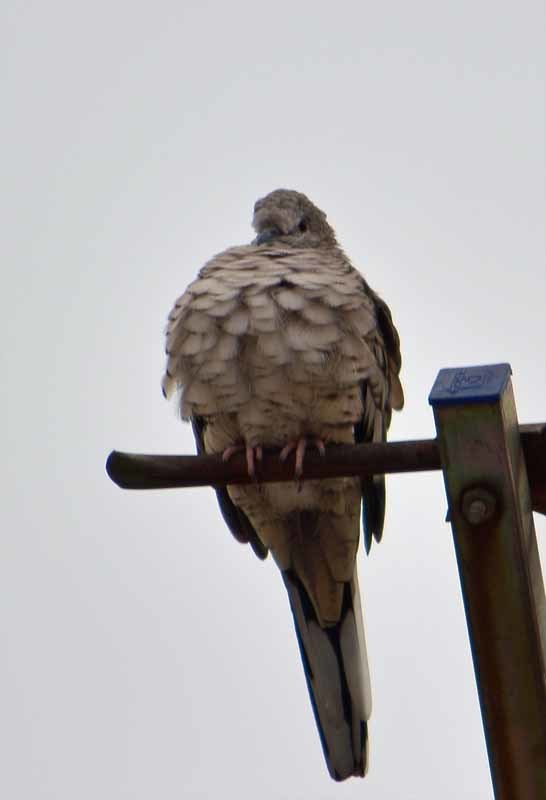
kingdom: Animalia
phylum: Chordata
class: Aves
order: Columbiformes
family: Columbidae
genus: Columbina
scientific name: Columbina inca
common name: Inca dove
